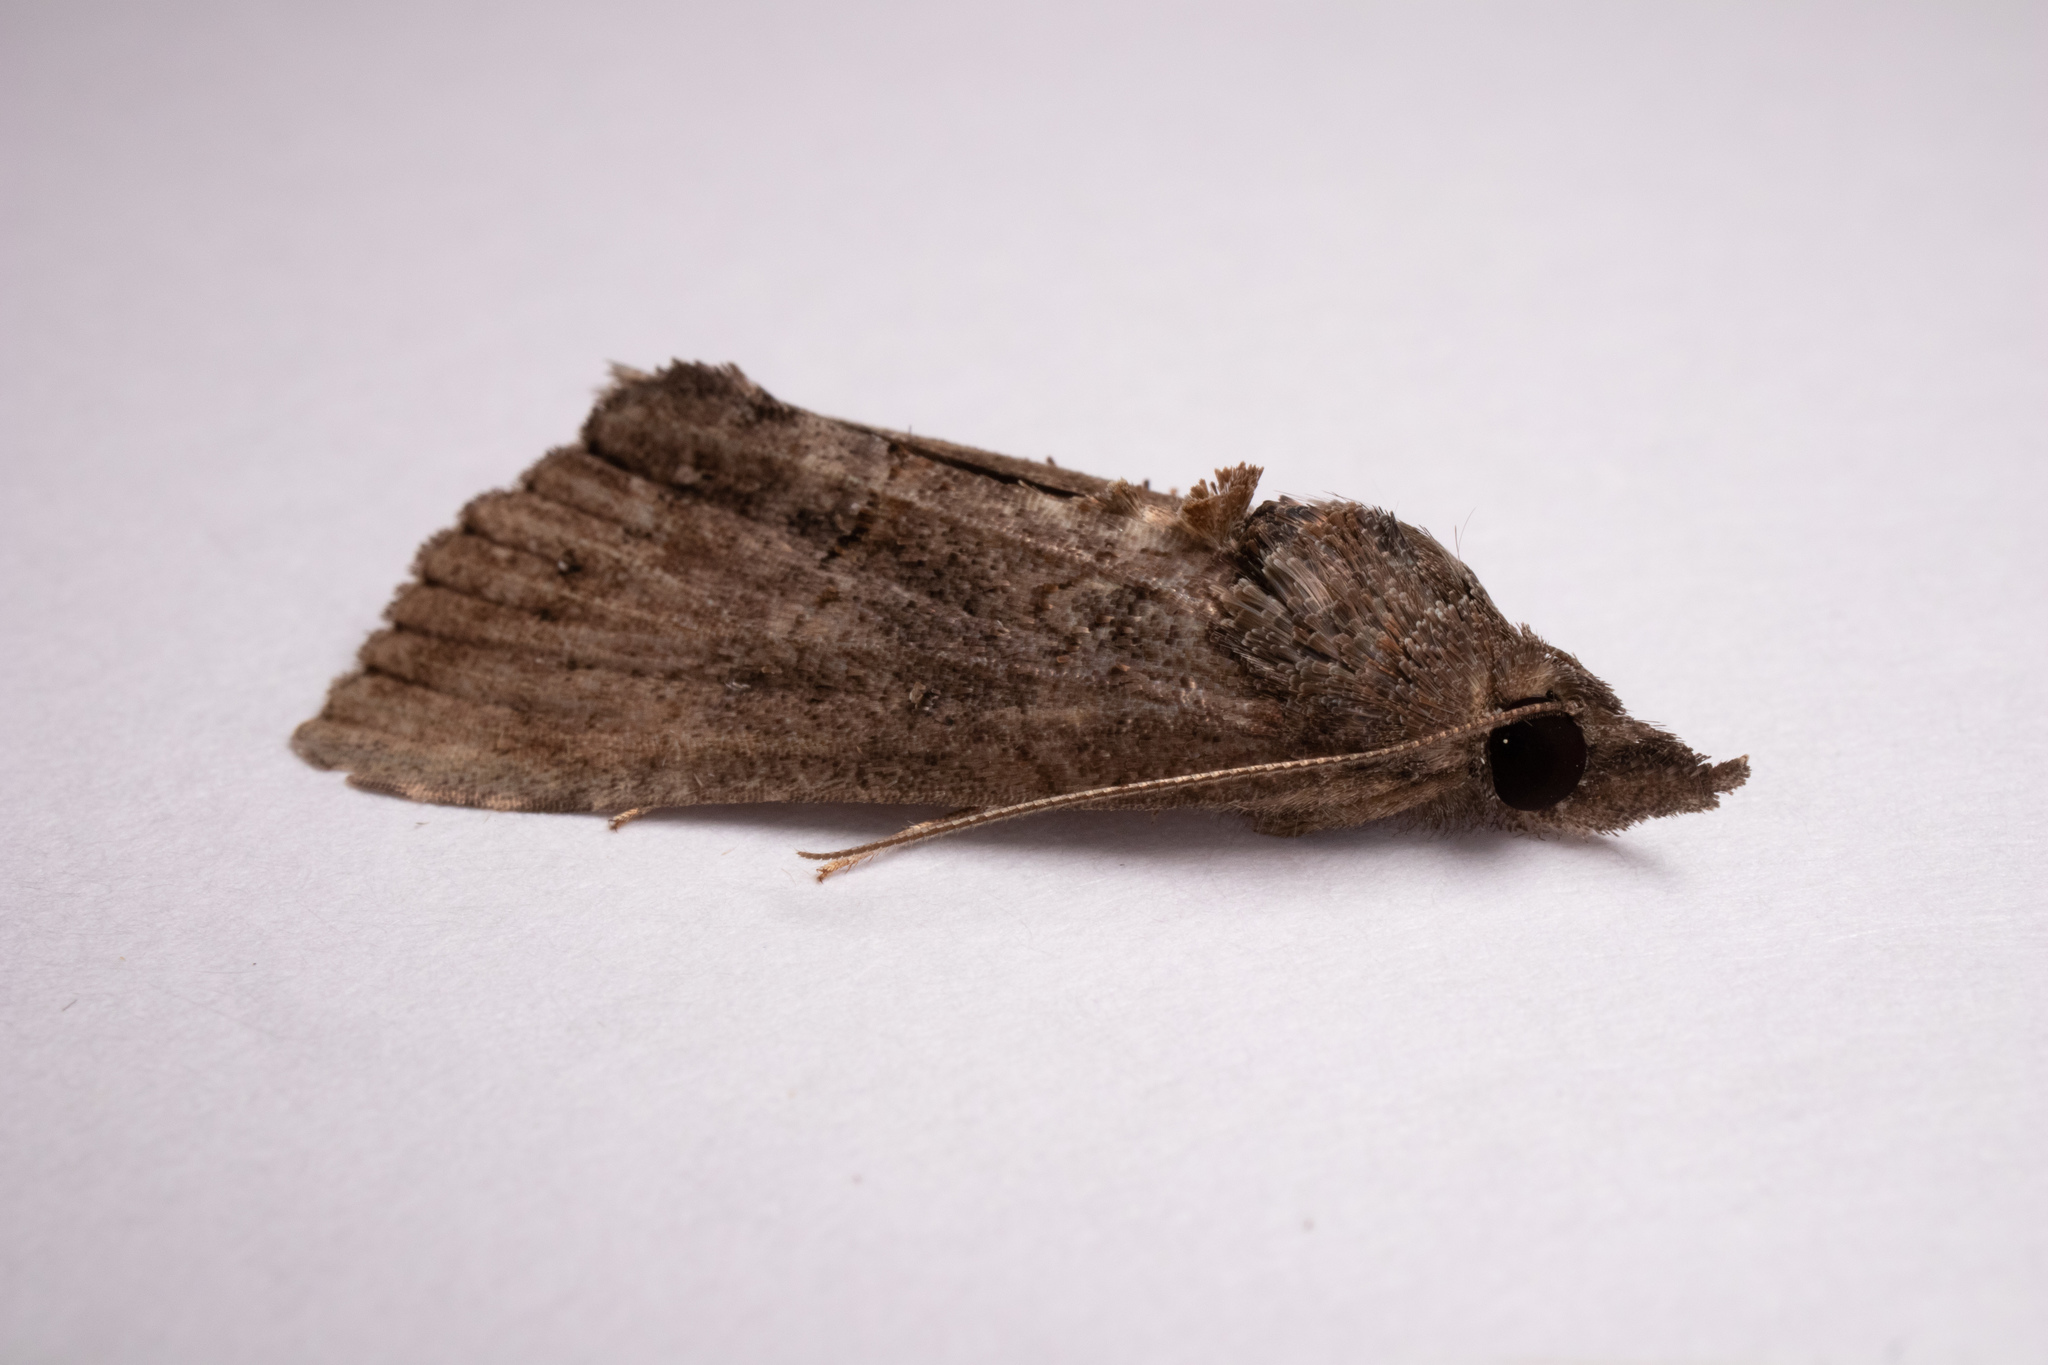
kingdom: Animalia
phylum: Arthropoda
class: Insecta
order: Lepidoptera
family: Erebidae
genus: Hypena
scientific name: Hypena scabra
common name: Green cloverworm
